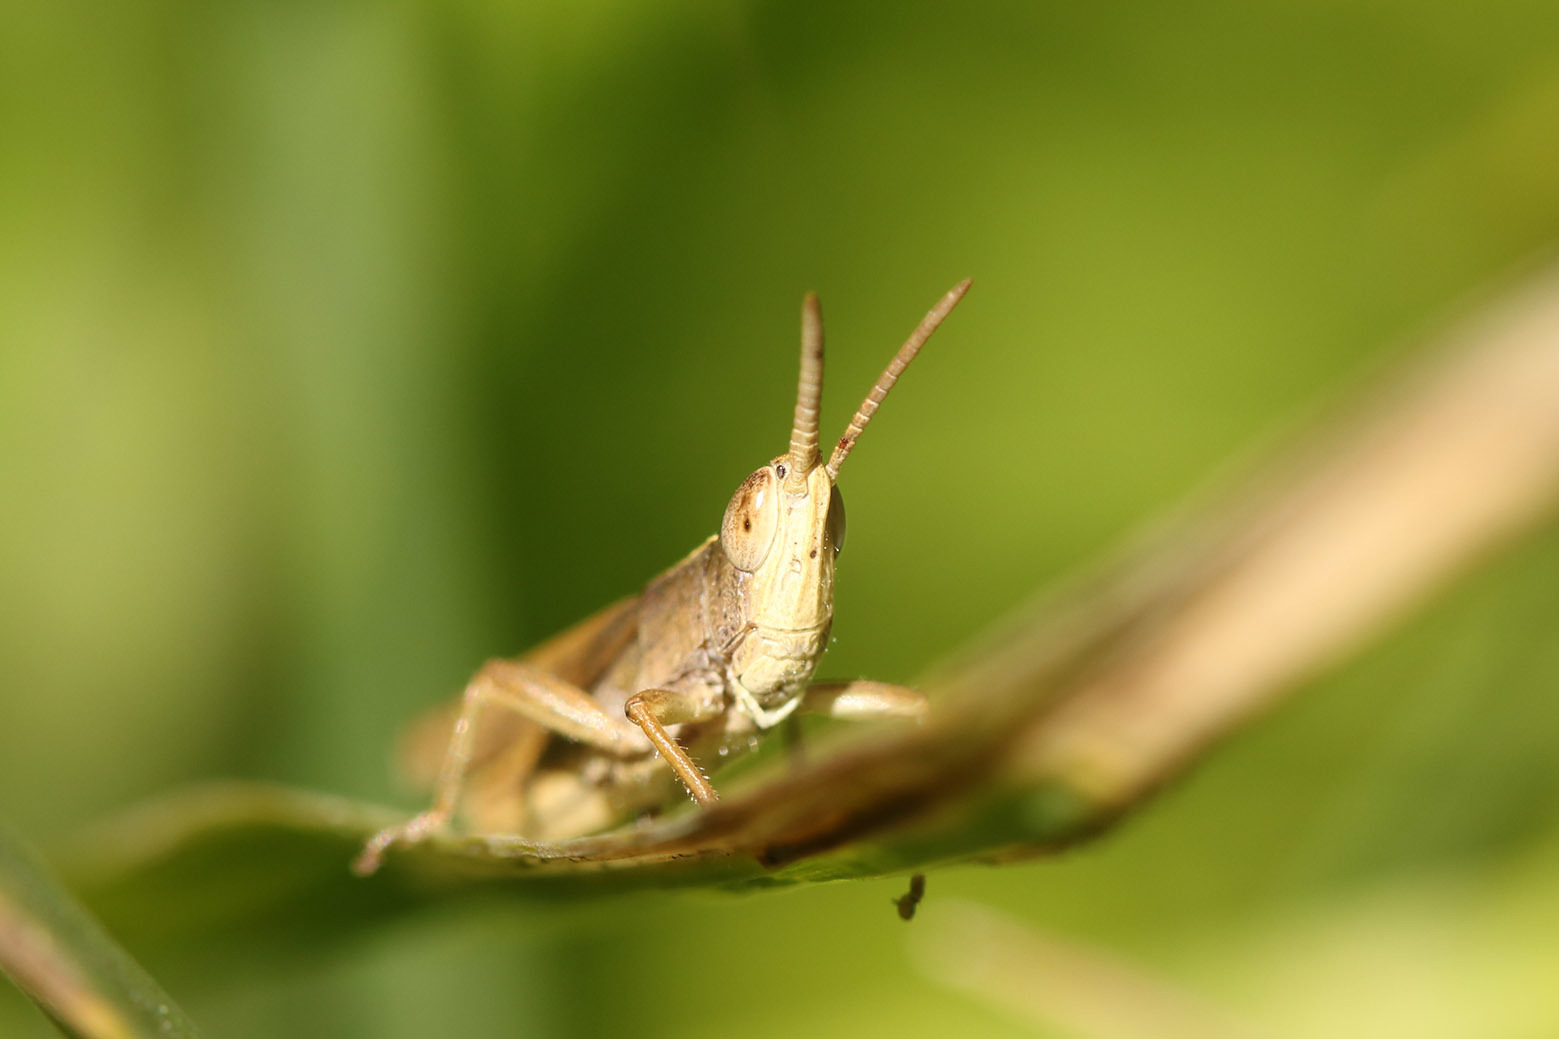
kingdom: Animalia
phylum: Arthropoda
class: Insecta
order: Orthoptera
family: Acrididae
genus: Laplatacris
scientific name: Laplatacris dispar
